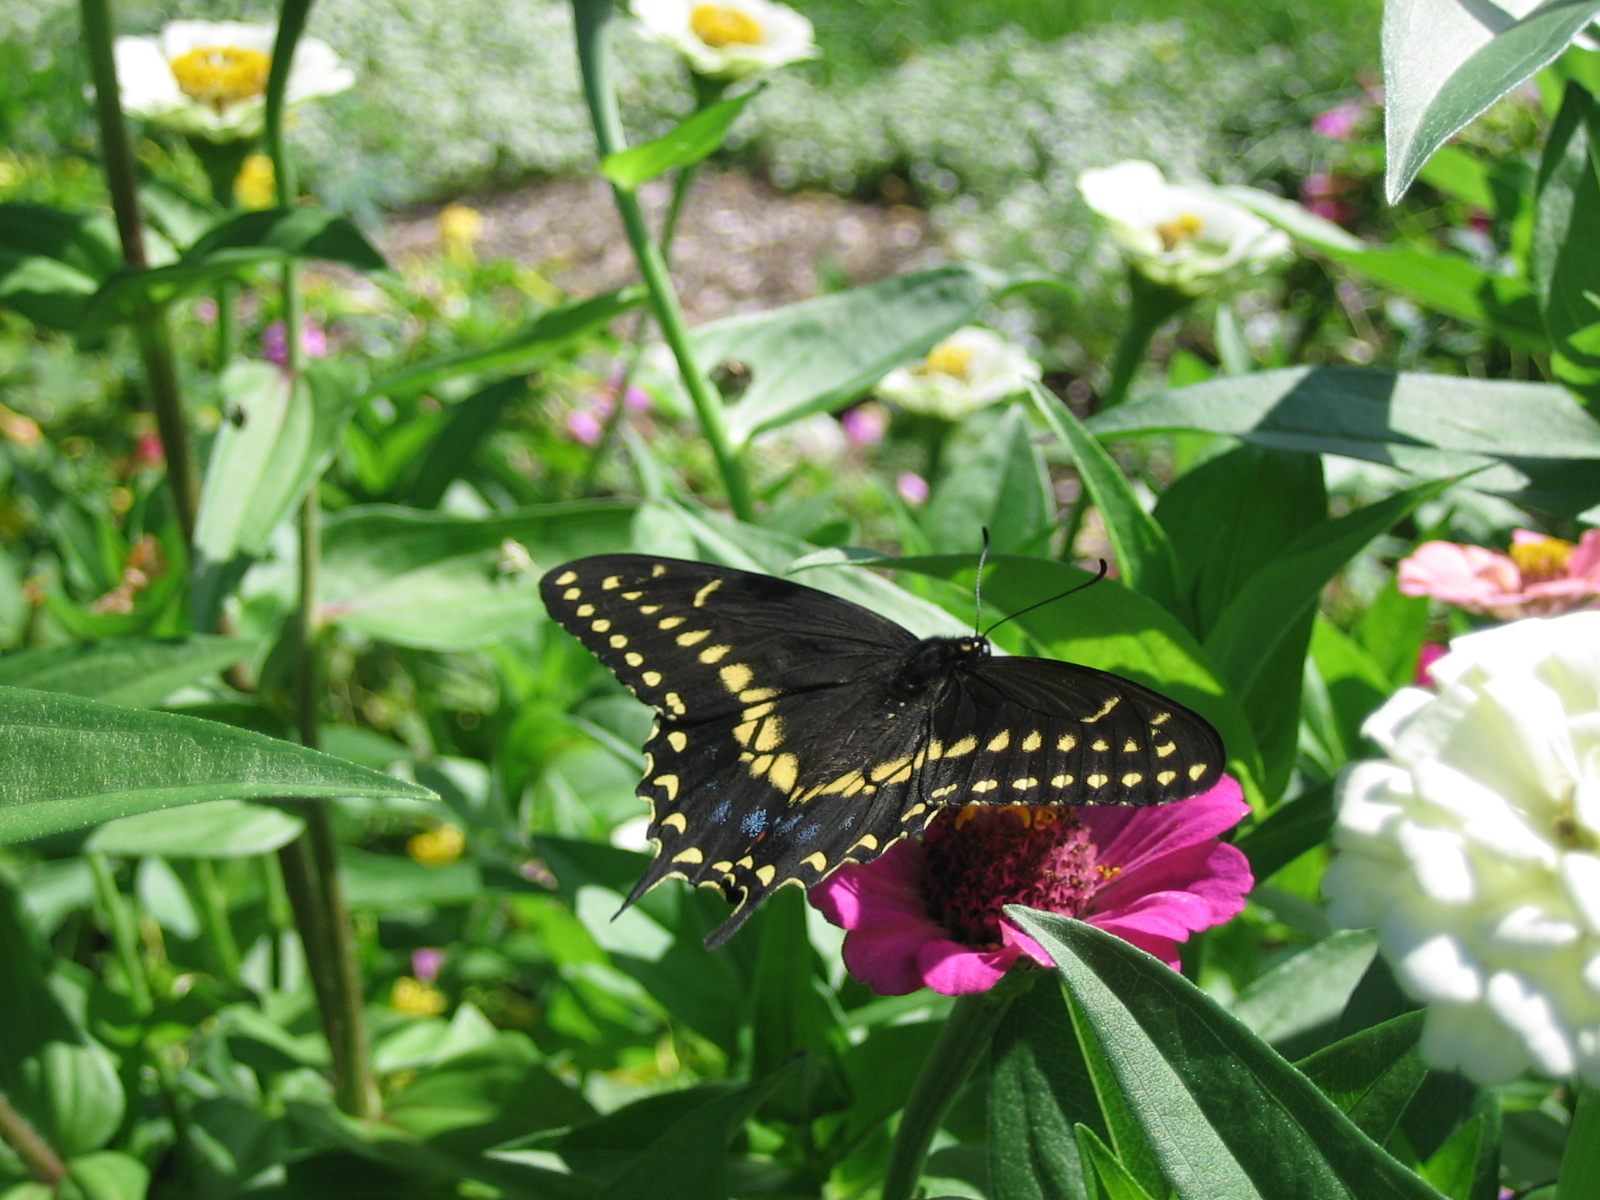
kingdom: Animalia
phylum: Arthropoda
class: Insecta
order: Lepidoptera
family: Papilionidae
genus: Papilio
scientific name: Papilio polyxenes
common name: Black swallowtail
